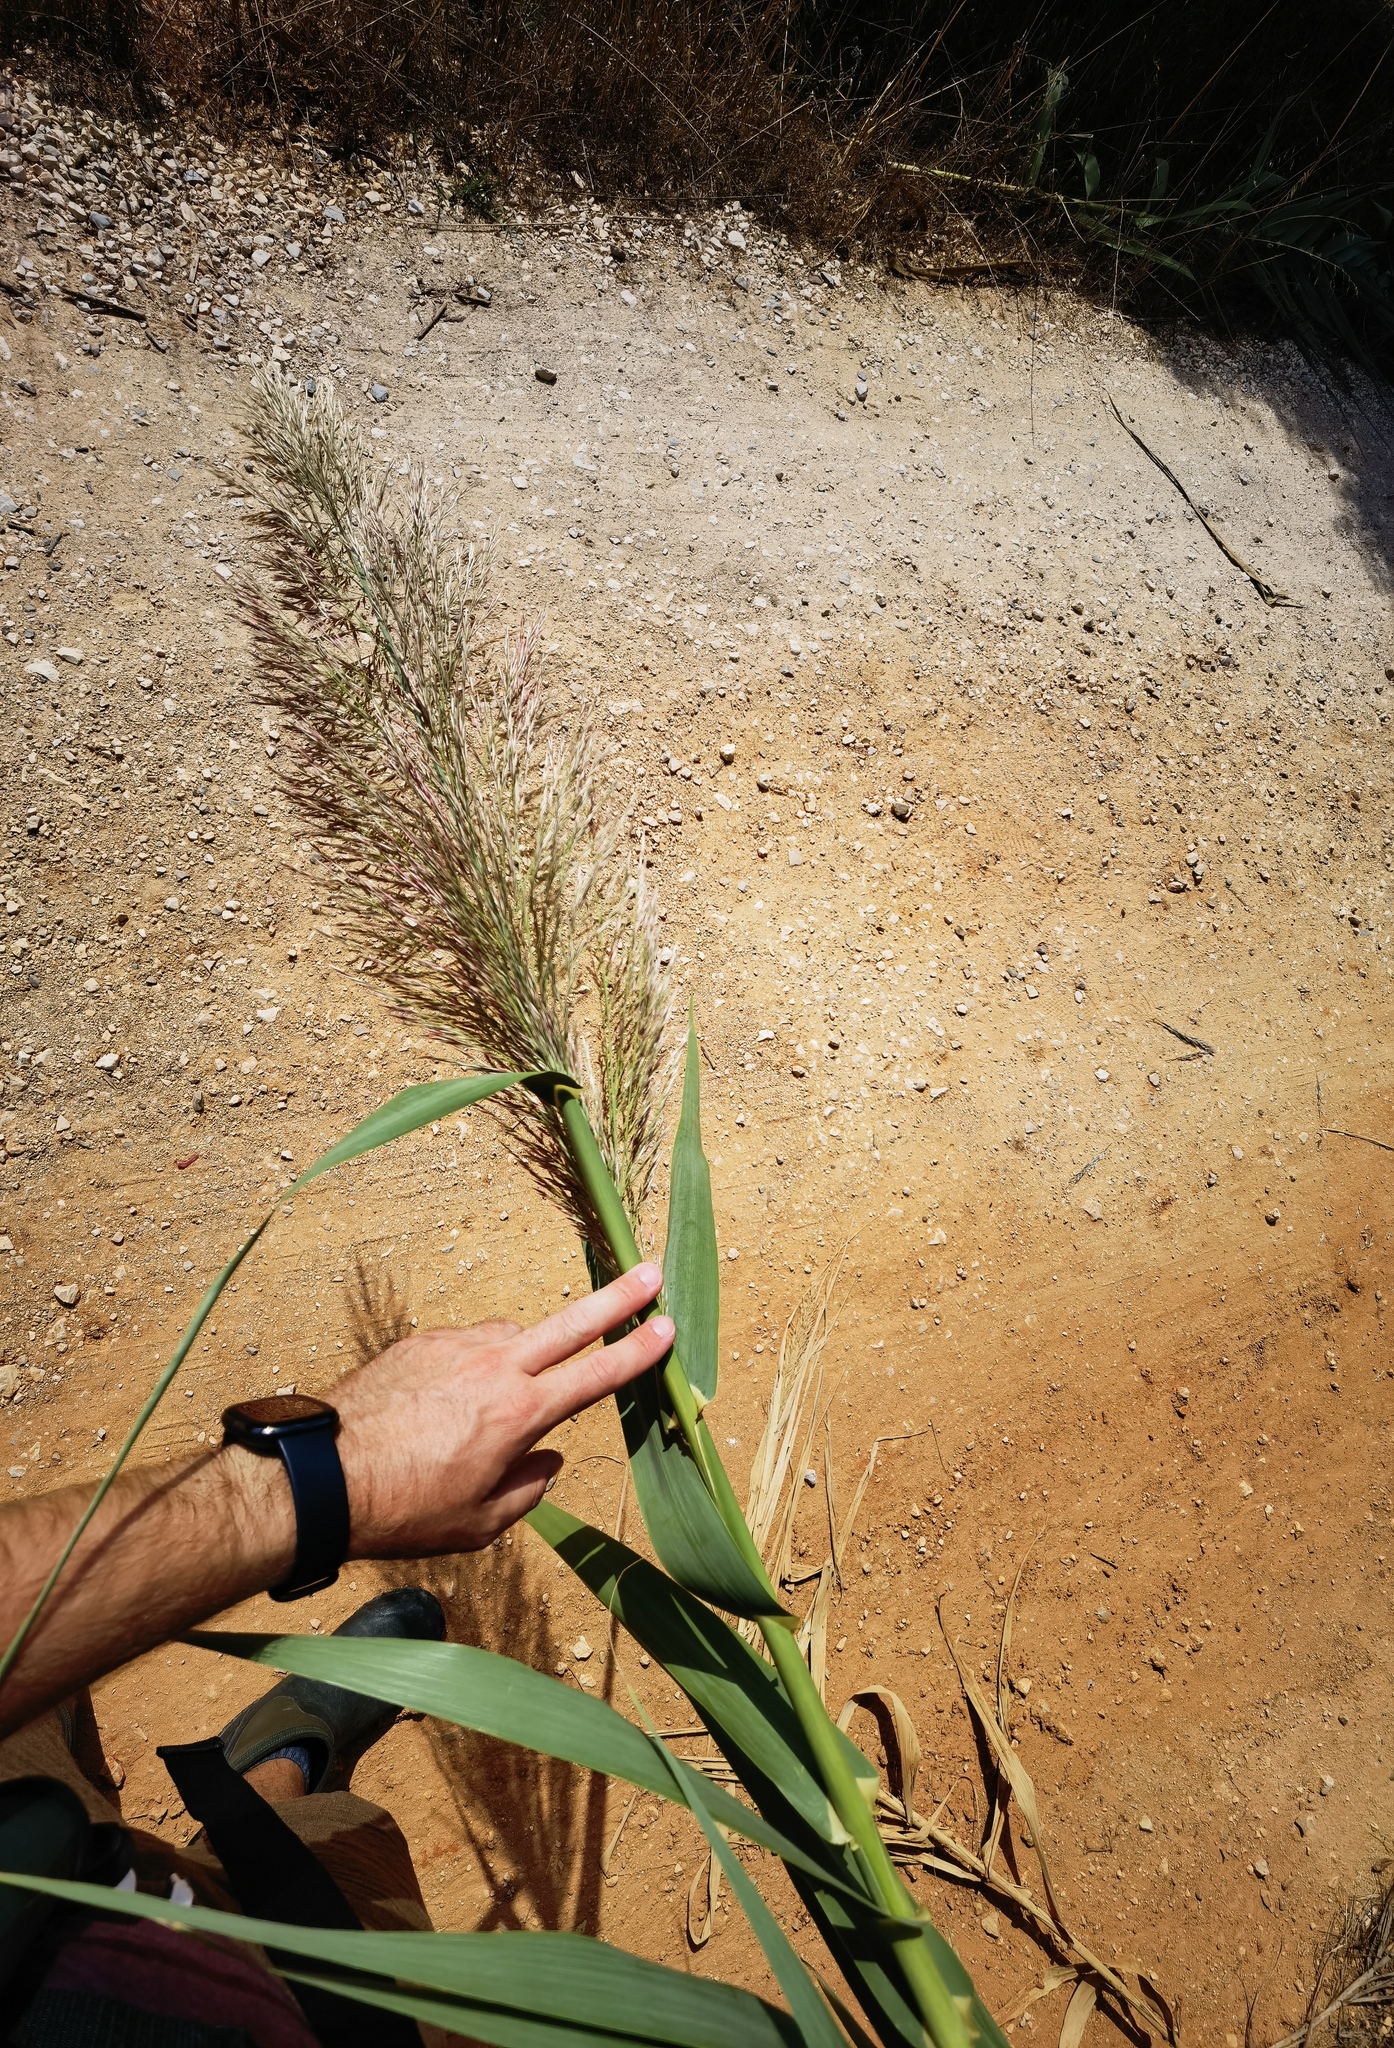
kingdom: Plantae
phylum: Tracheophyta
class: Liliopsida
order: Poales
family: Poaceae
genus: Arundo
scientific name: Arundo donax
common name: Giant reed
